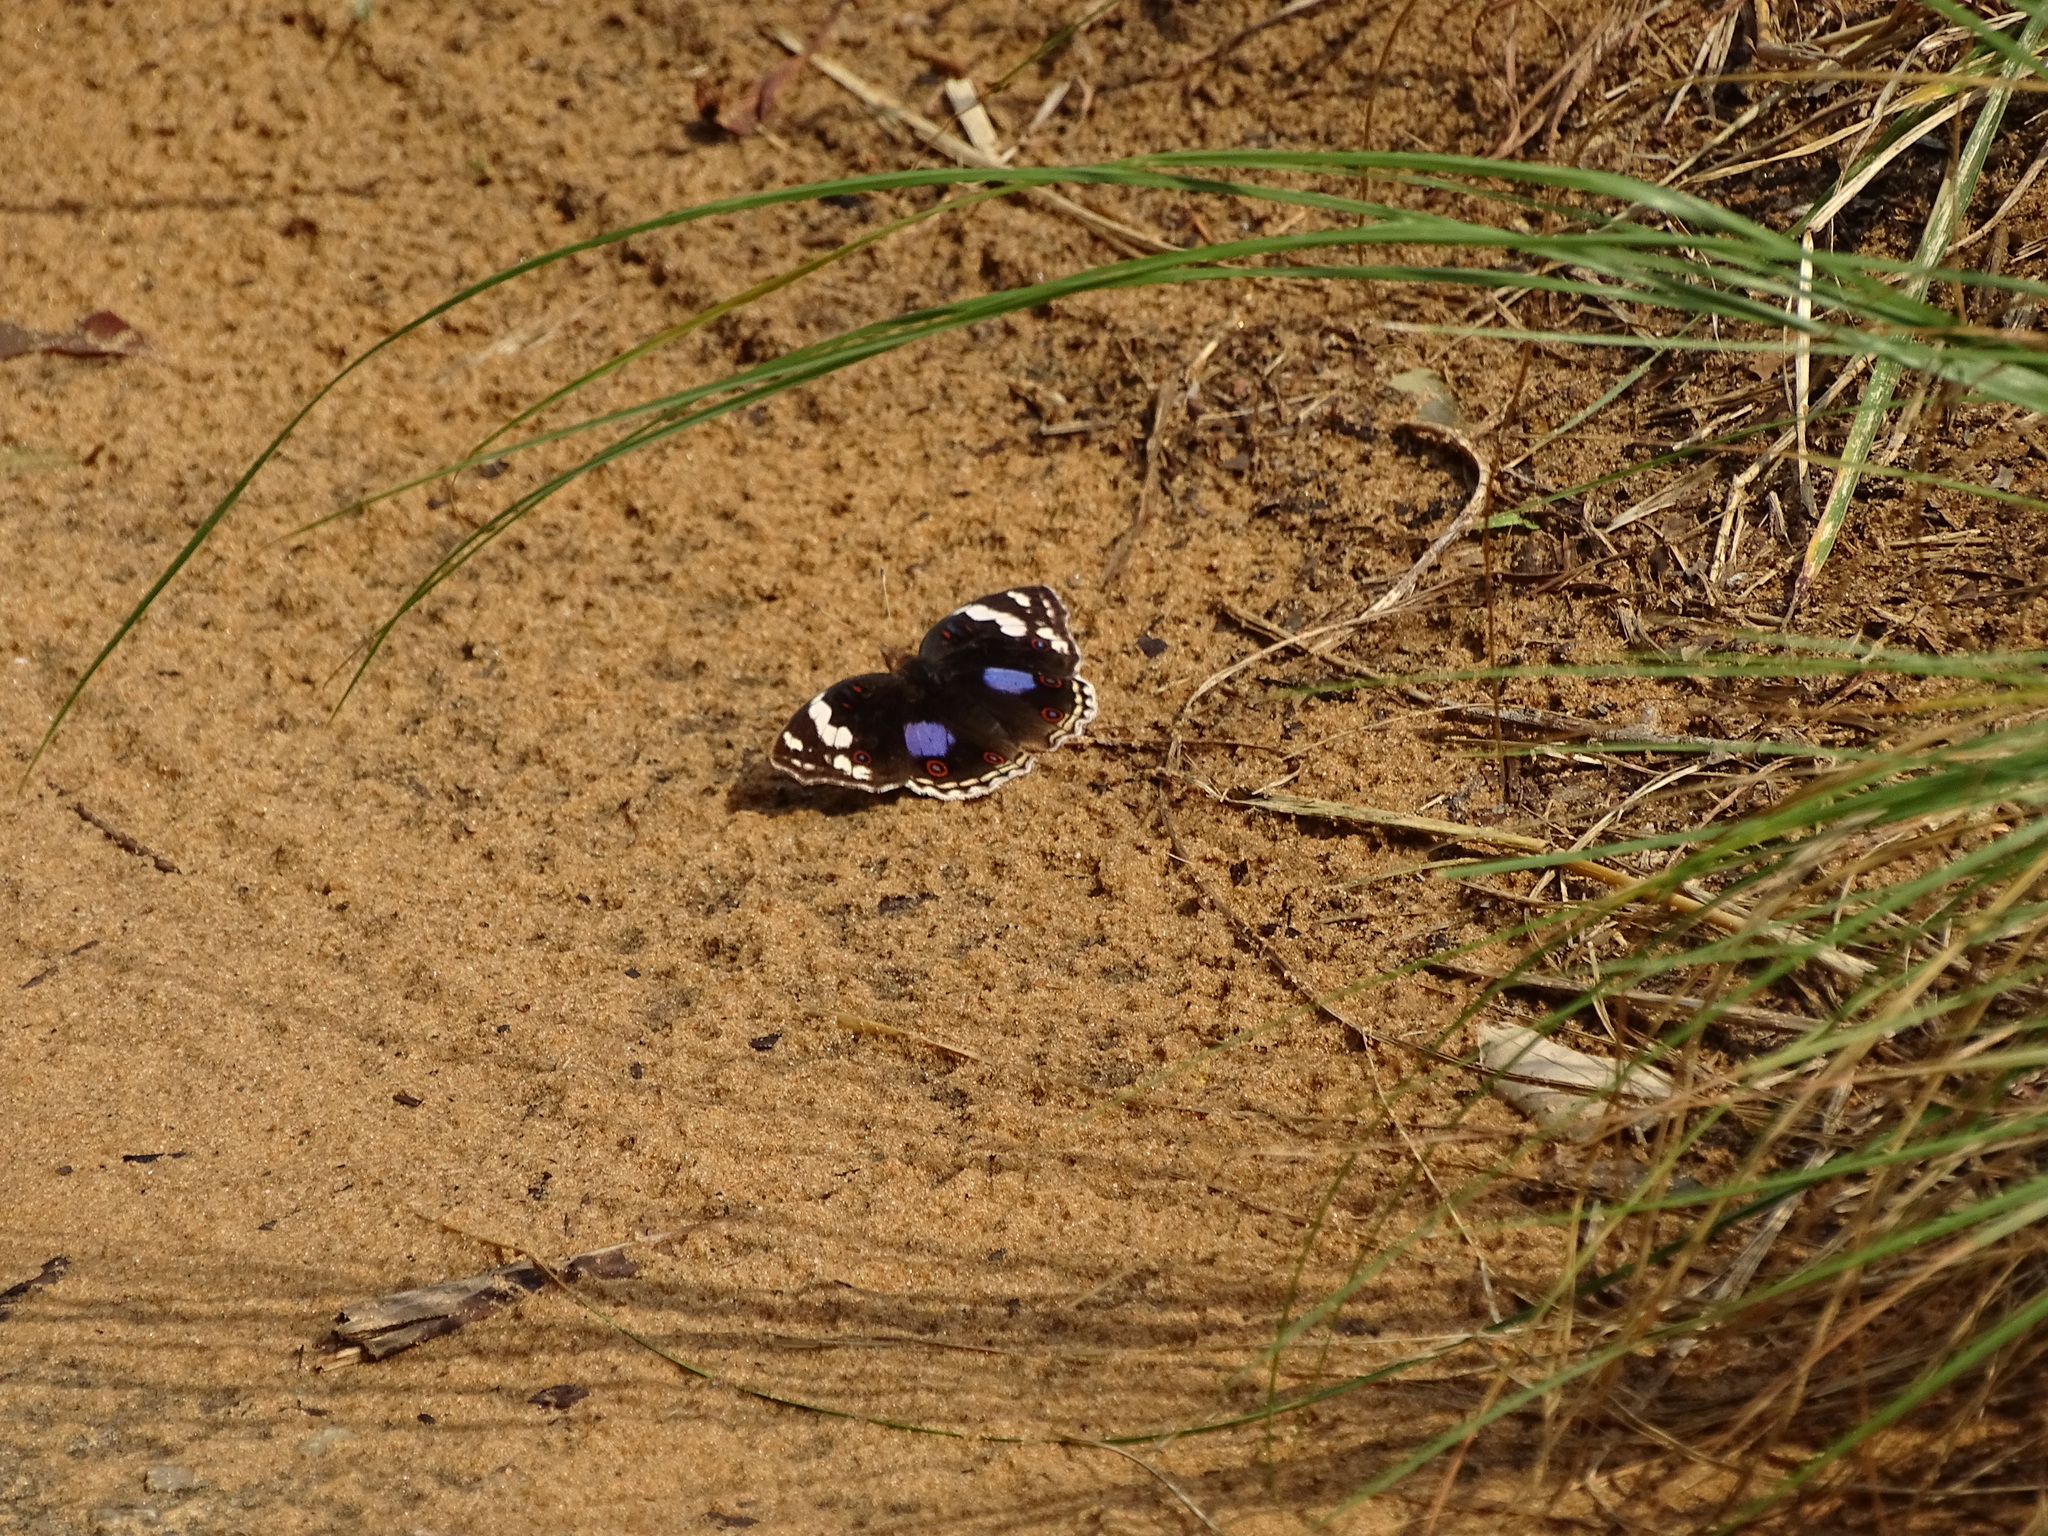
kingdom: Animalia
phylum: Arthropoda
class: Insecta
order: Lepidoptera
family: Nymphalidae
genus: Junonia
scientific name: Junonia oenone
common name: Dark blue pansy
